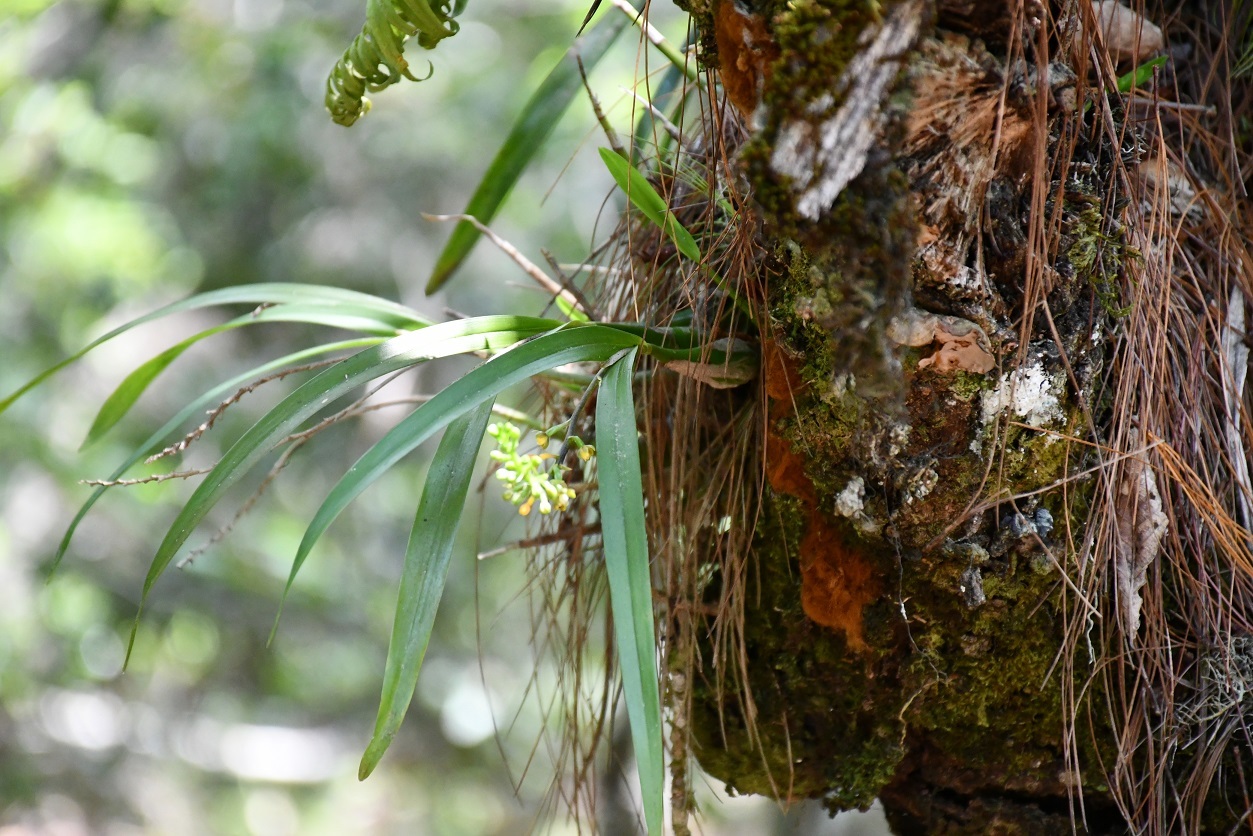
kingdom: Plantae
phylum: Tracheophyta
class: Liliopsida
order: Asparagales
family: Orchidaceae
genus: Prosthechea
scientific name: Prosthechea ochracea
